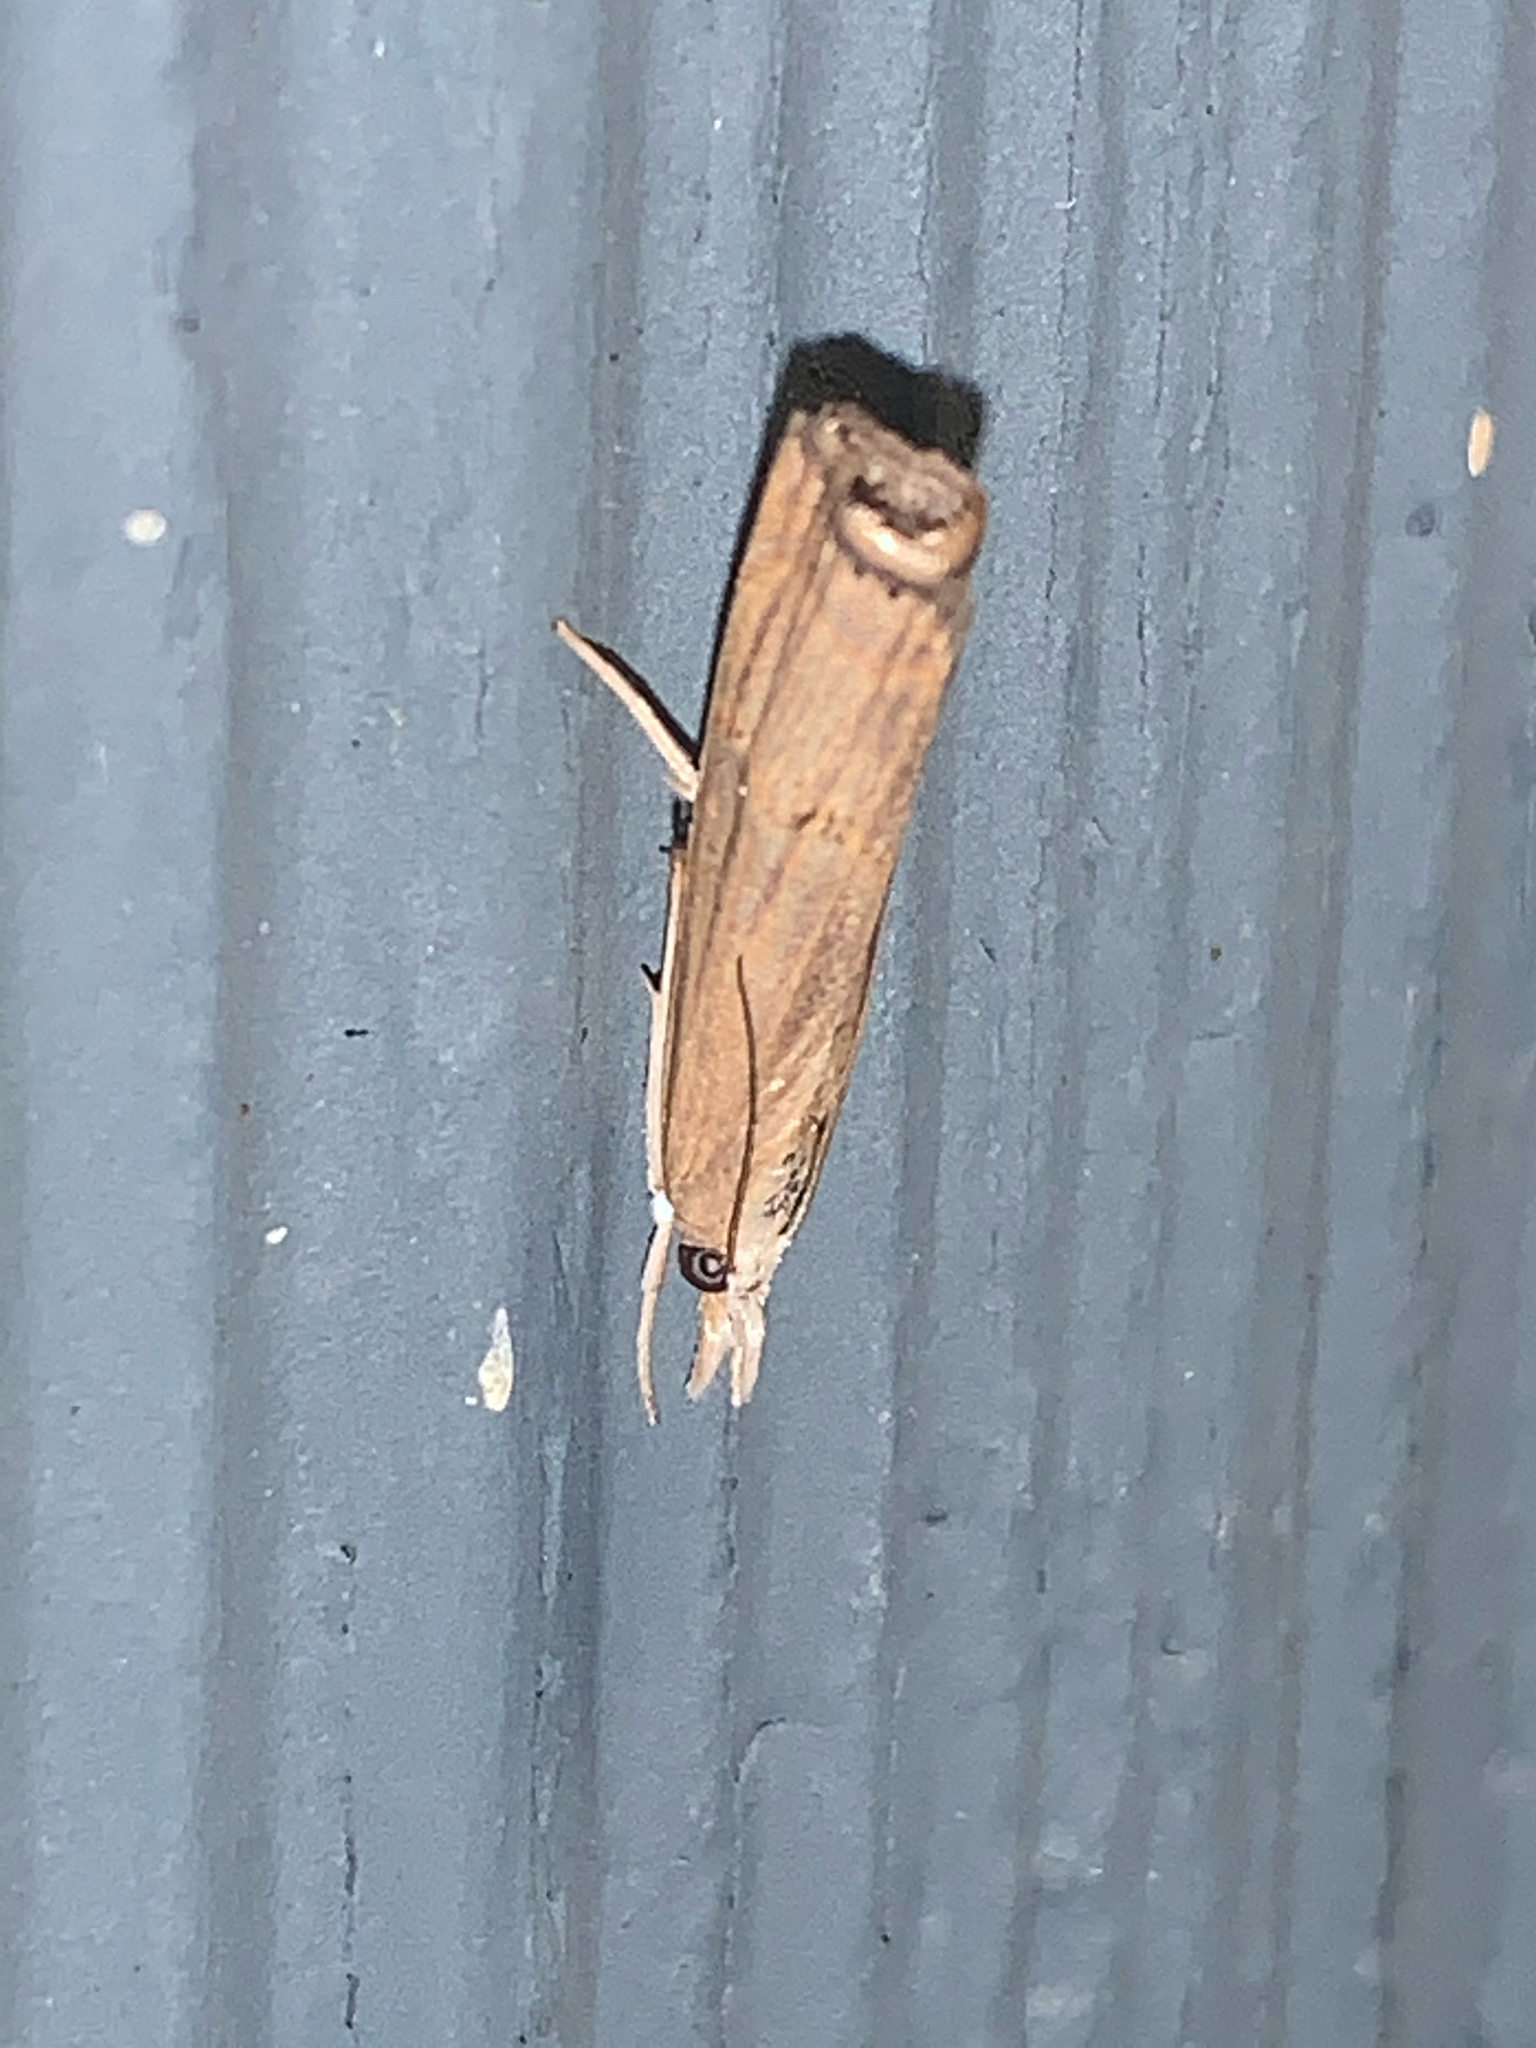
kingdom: Animalia
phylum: Arthropoda
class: Insecta
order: Lepidoptera
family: Crambidae
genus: Parapediasia
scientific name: Parapediasia teterellus
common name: Bluegrass webworm moth
